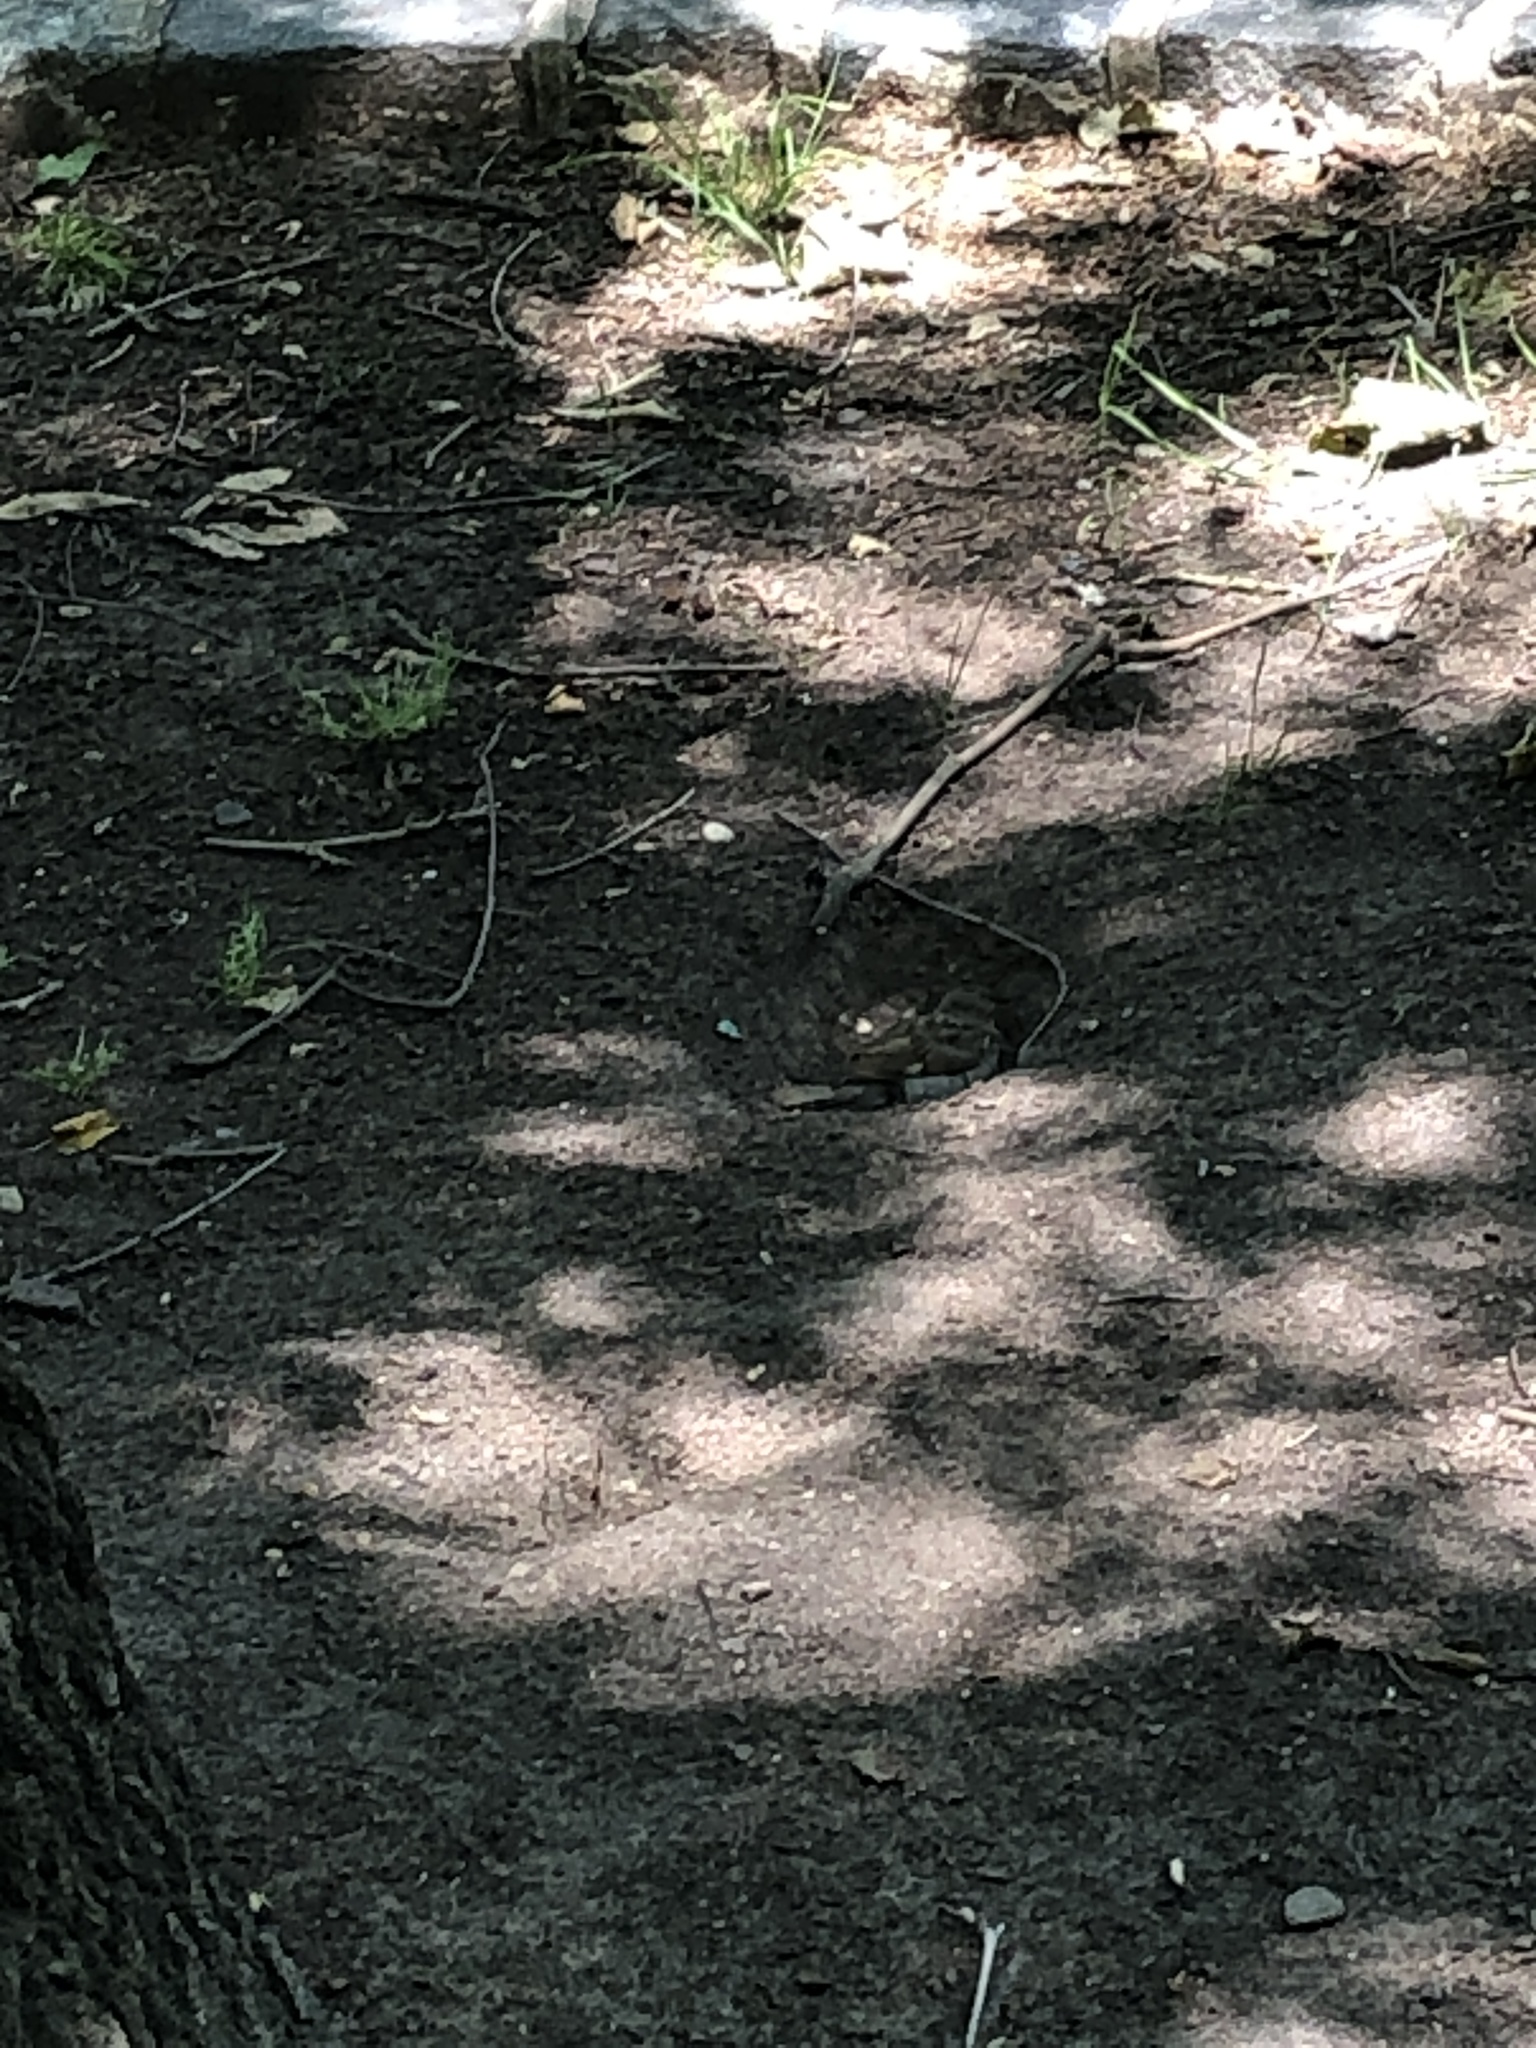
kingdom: Animalia
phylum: Chordata
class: Aves
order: Passeriformes
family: Passeridae
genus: Passer
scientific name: Passer domesticus
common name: House sparrow
